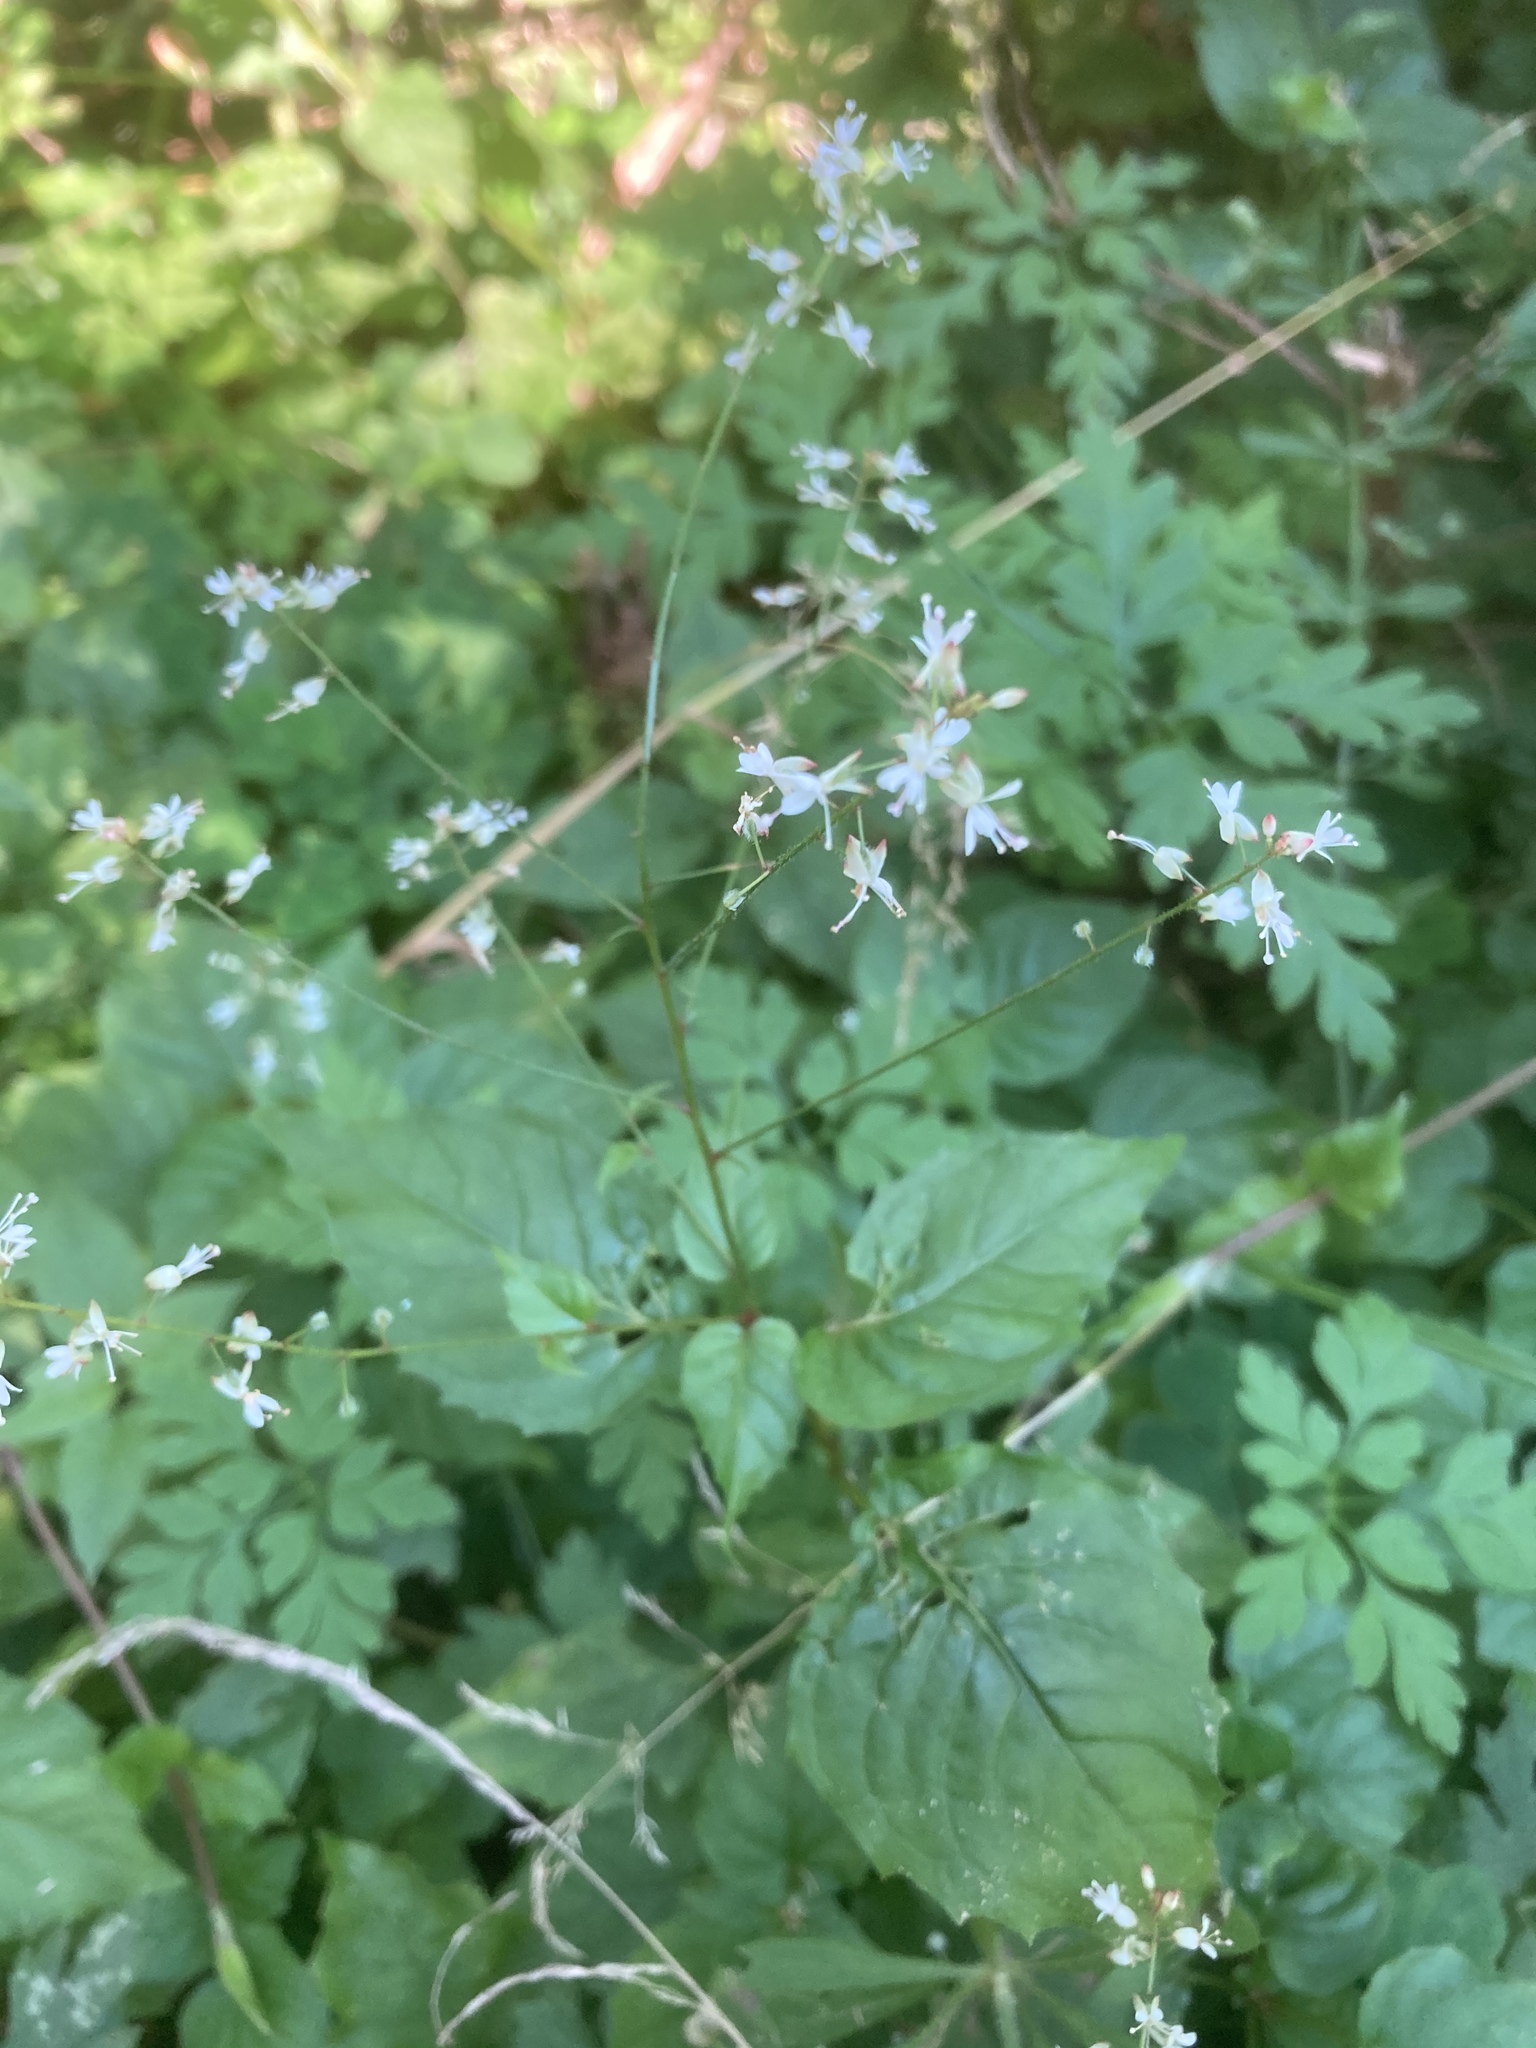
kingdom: Plantae
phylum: Tracheophyta
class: Magnoliopsida
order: Myrtales
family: Onagraceae
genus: Circaea
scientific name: Circaea lutetiana
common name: Enchanter's-nightshade
